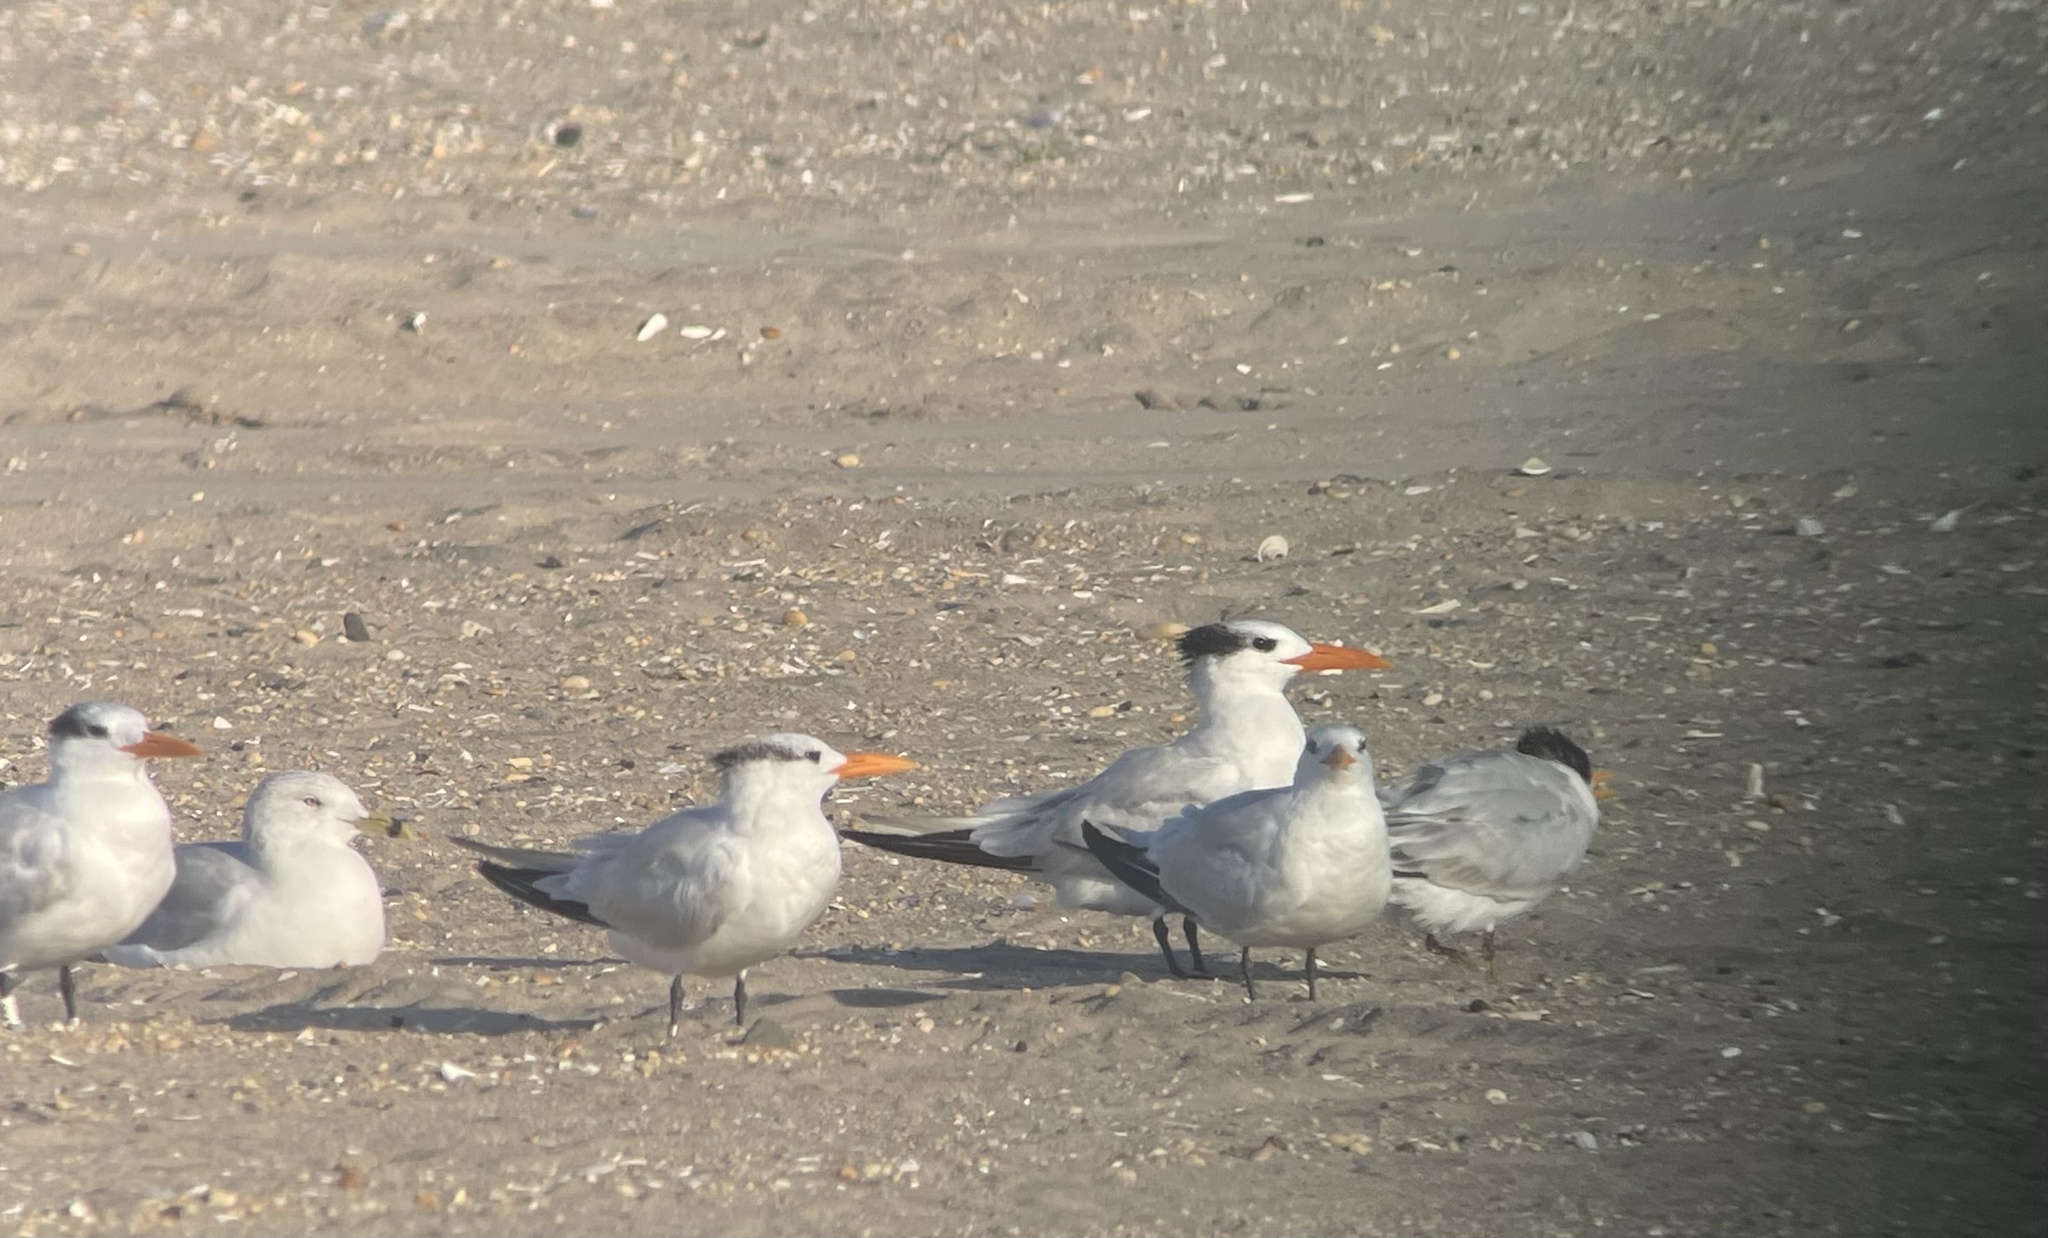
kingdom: Animalia
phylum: Chordata
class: Aves
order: Charadriiformes
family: Laridae
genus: Thalasseus
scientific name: Thalasseus maximus
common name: Royal tern
